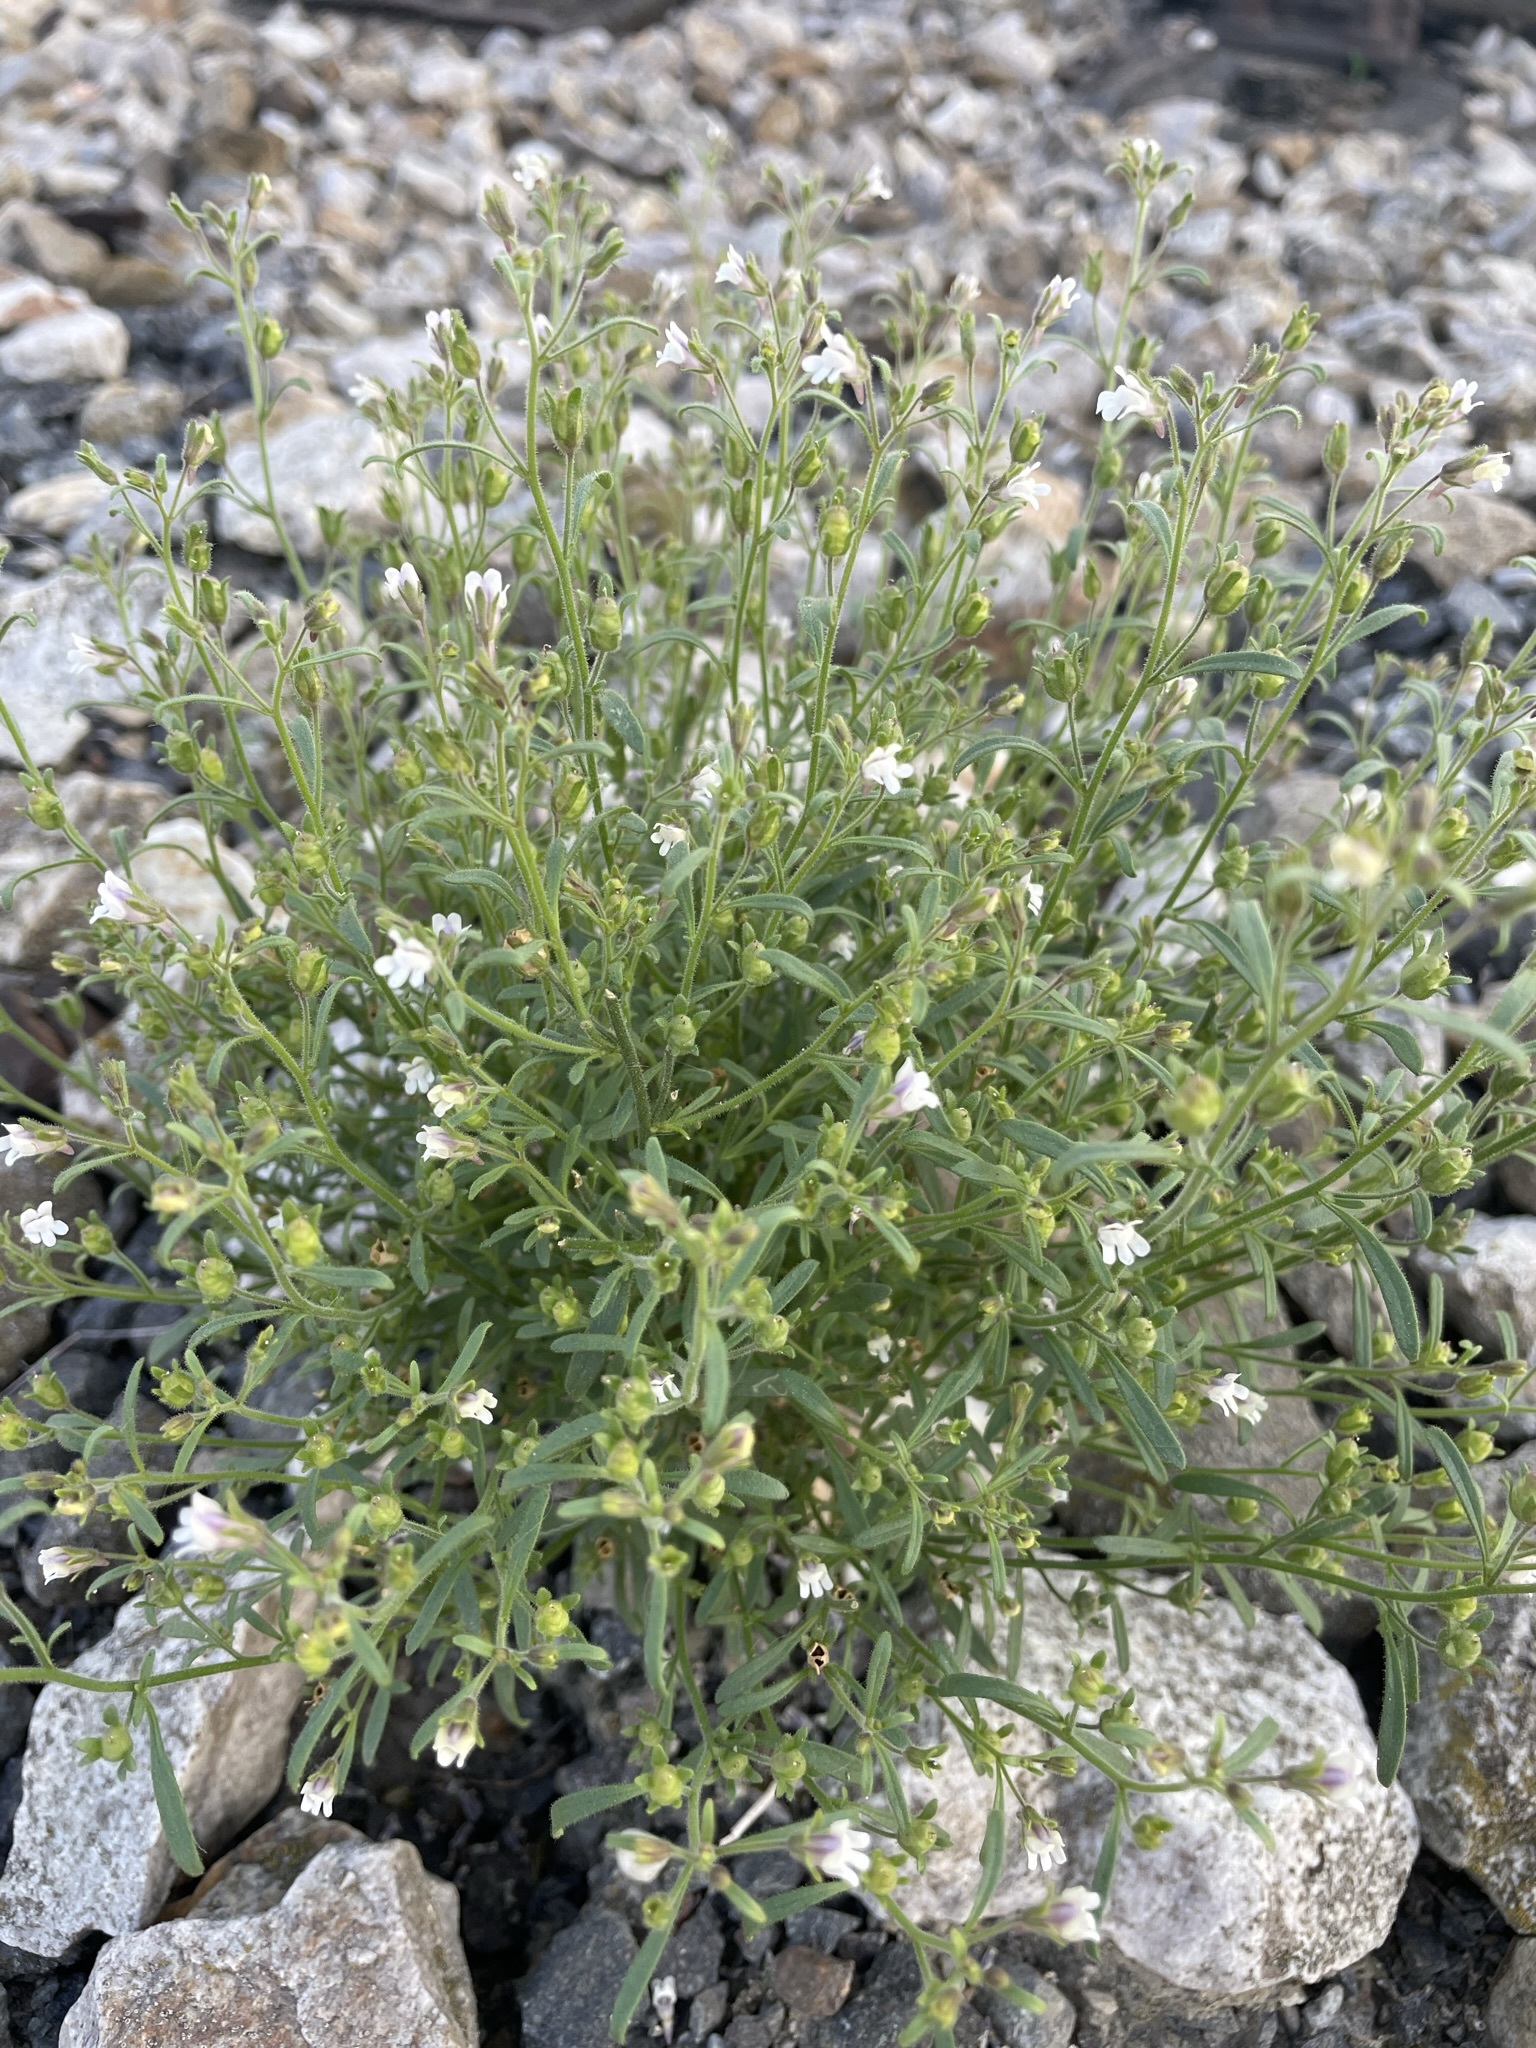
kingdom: Plantae
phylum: Tracheophyta
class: Magnoliopsida
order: Lamiales
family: Plantaginaceae
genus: Chaenorhinum
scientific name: Chaenorhinum minus
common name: Dwarf snapdragon
